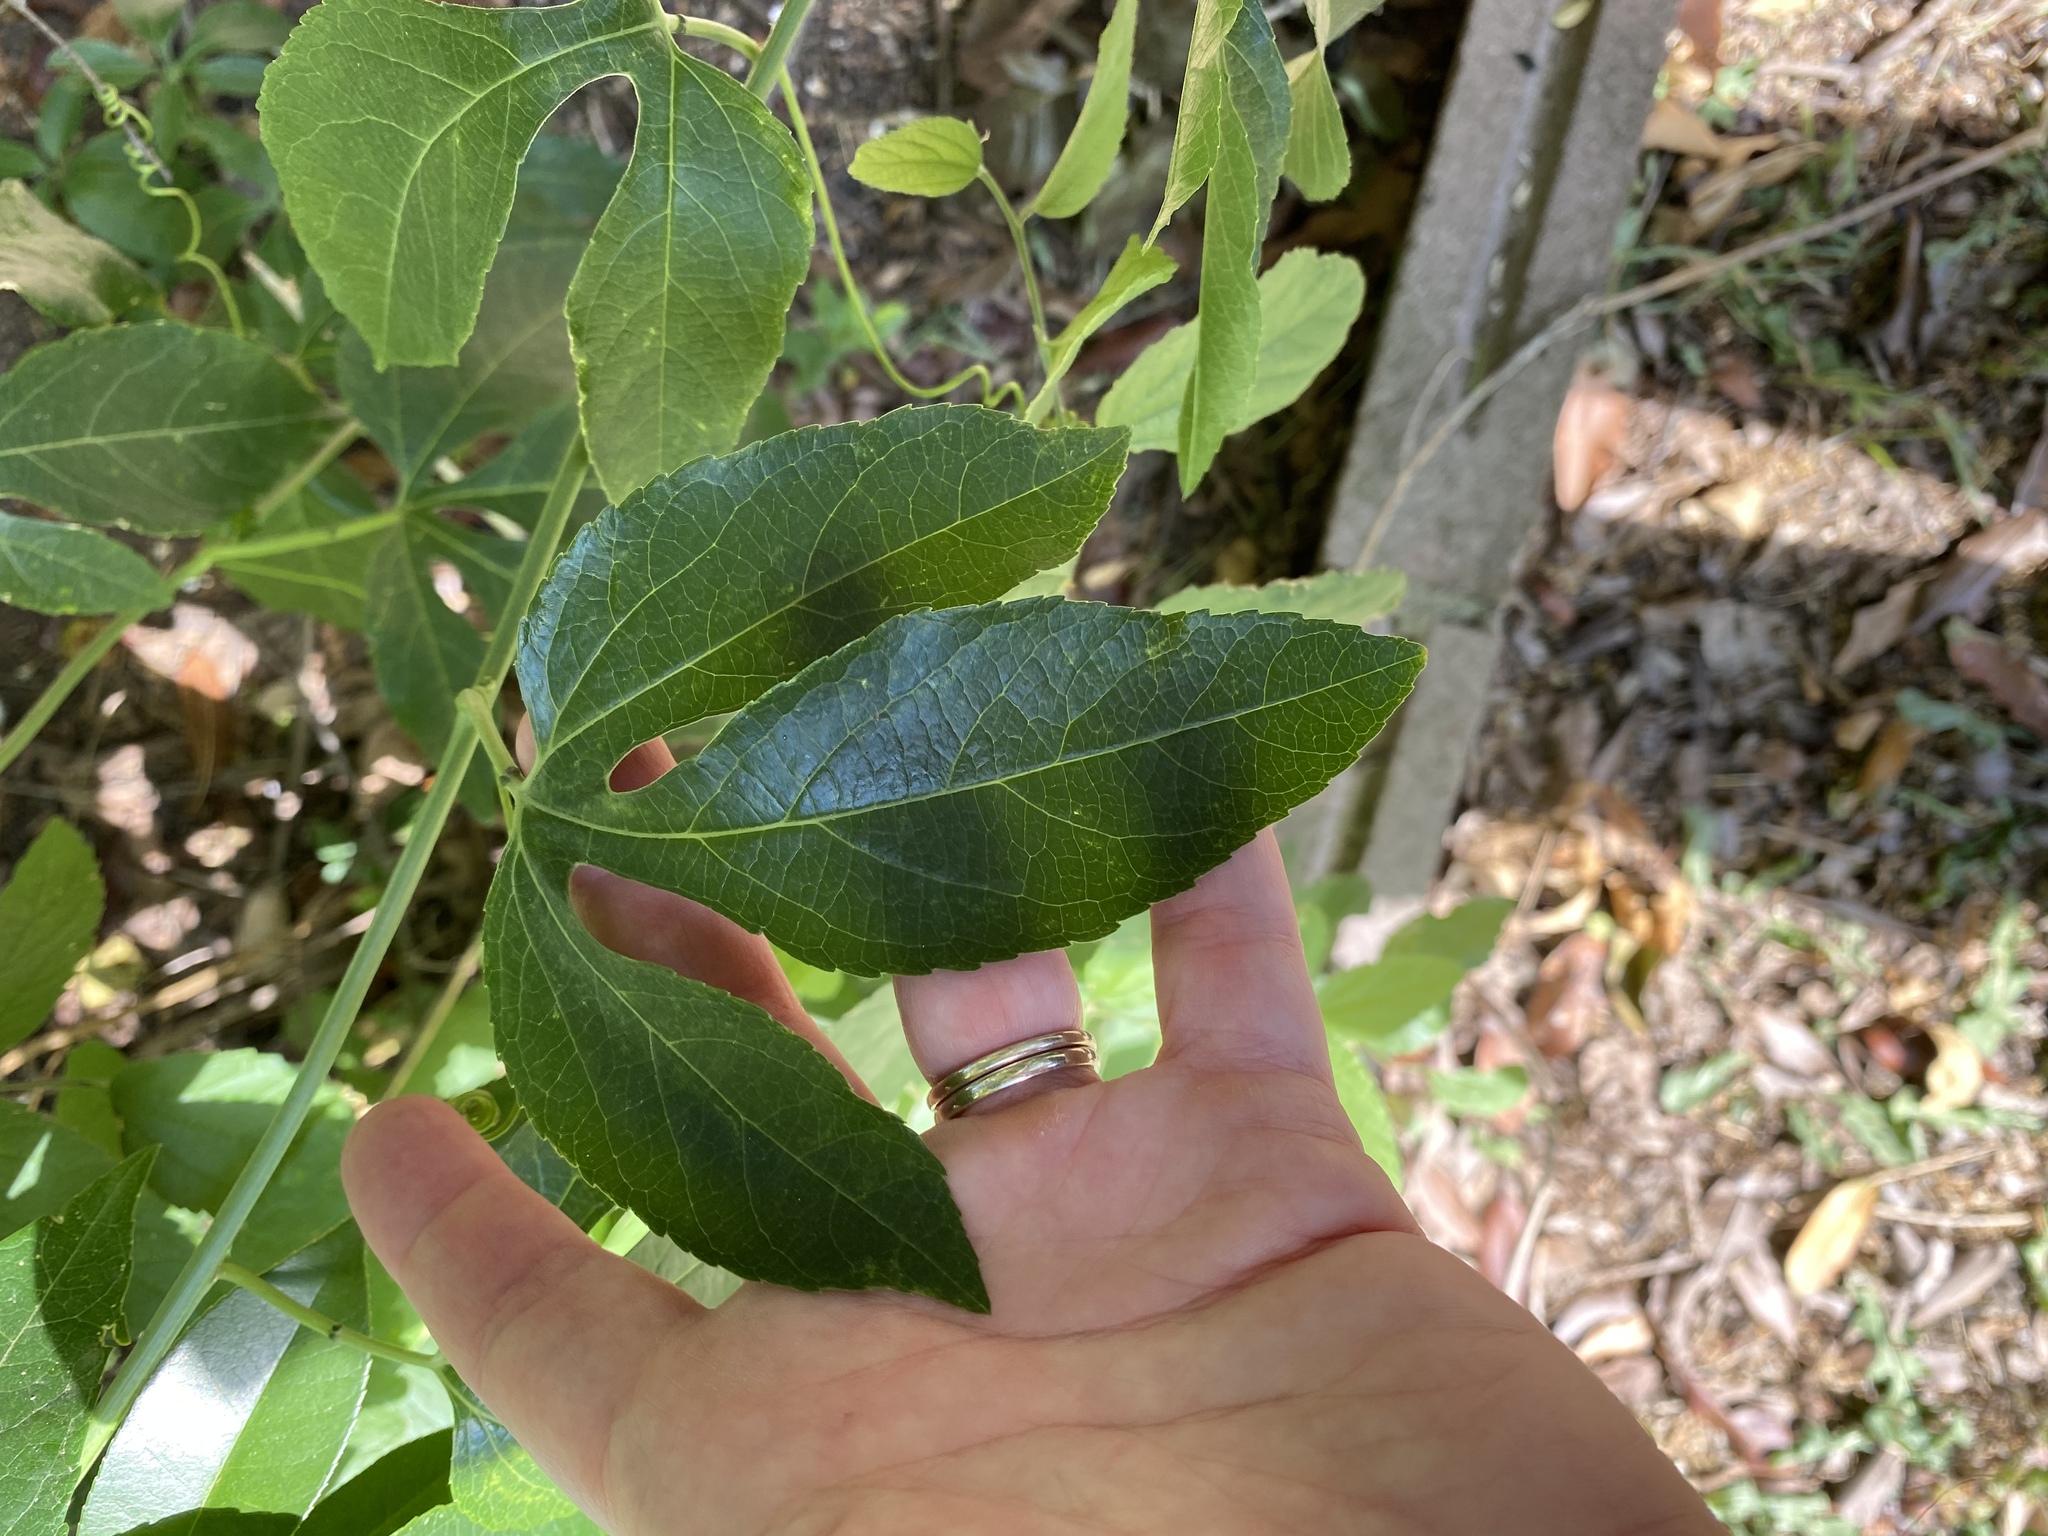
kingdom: Plantae
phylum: Tracheophyta
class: Magnoliopsida
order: Malpighiales
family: Passifloraceae
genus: Passiflora
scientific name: Passiflora
